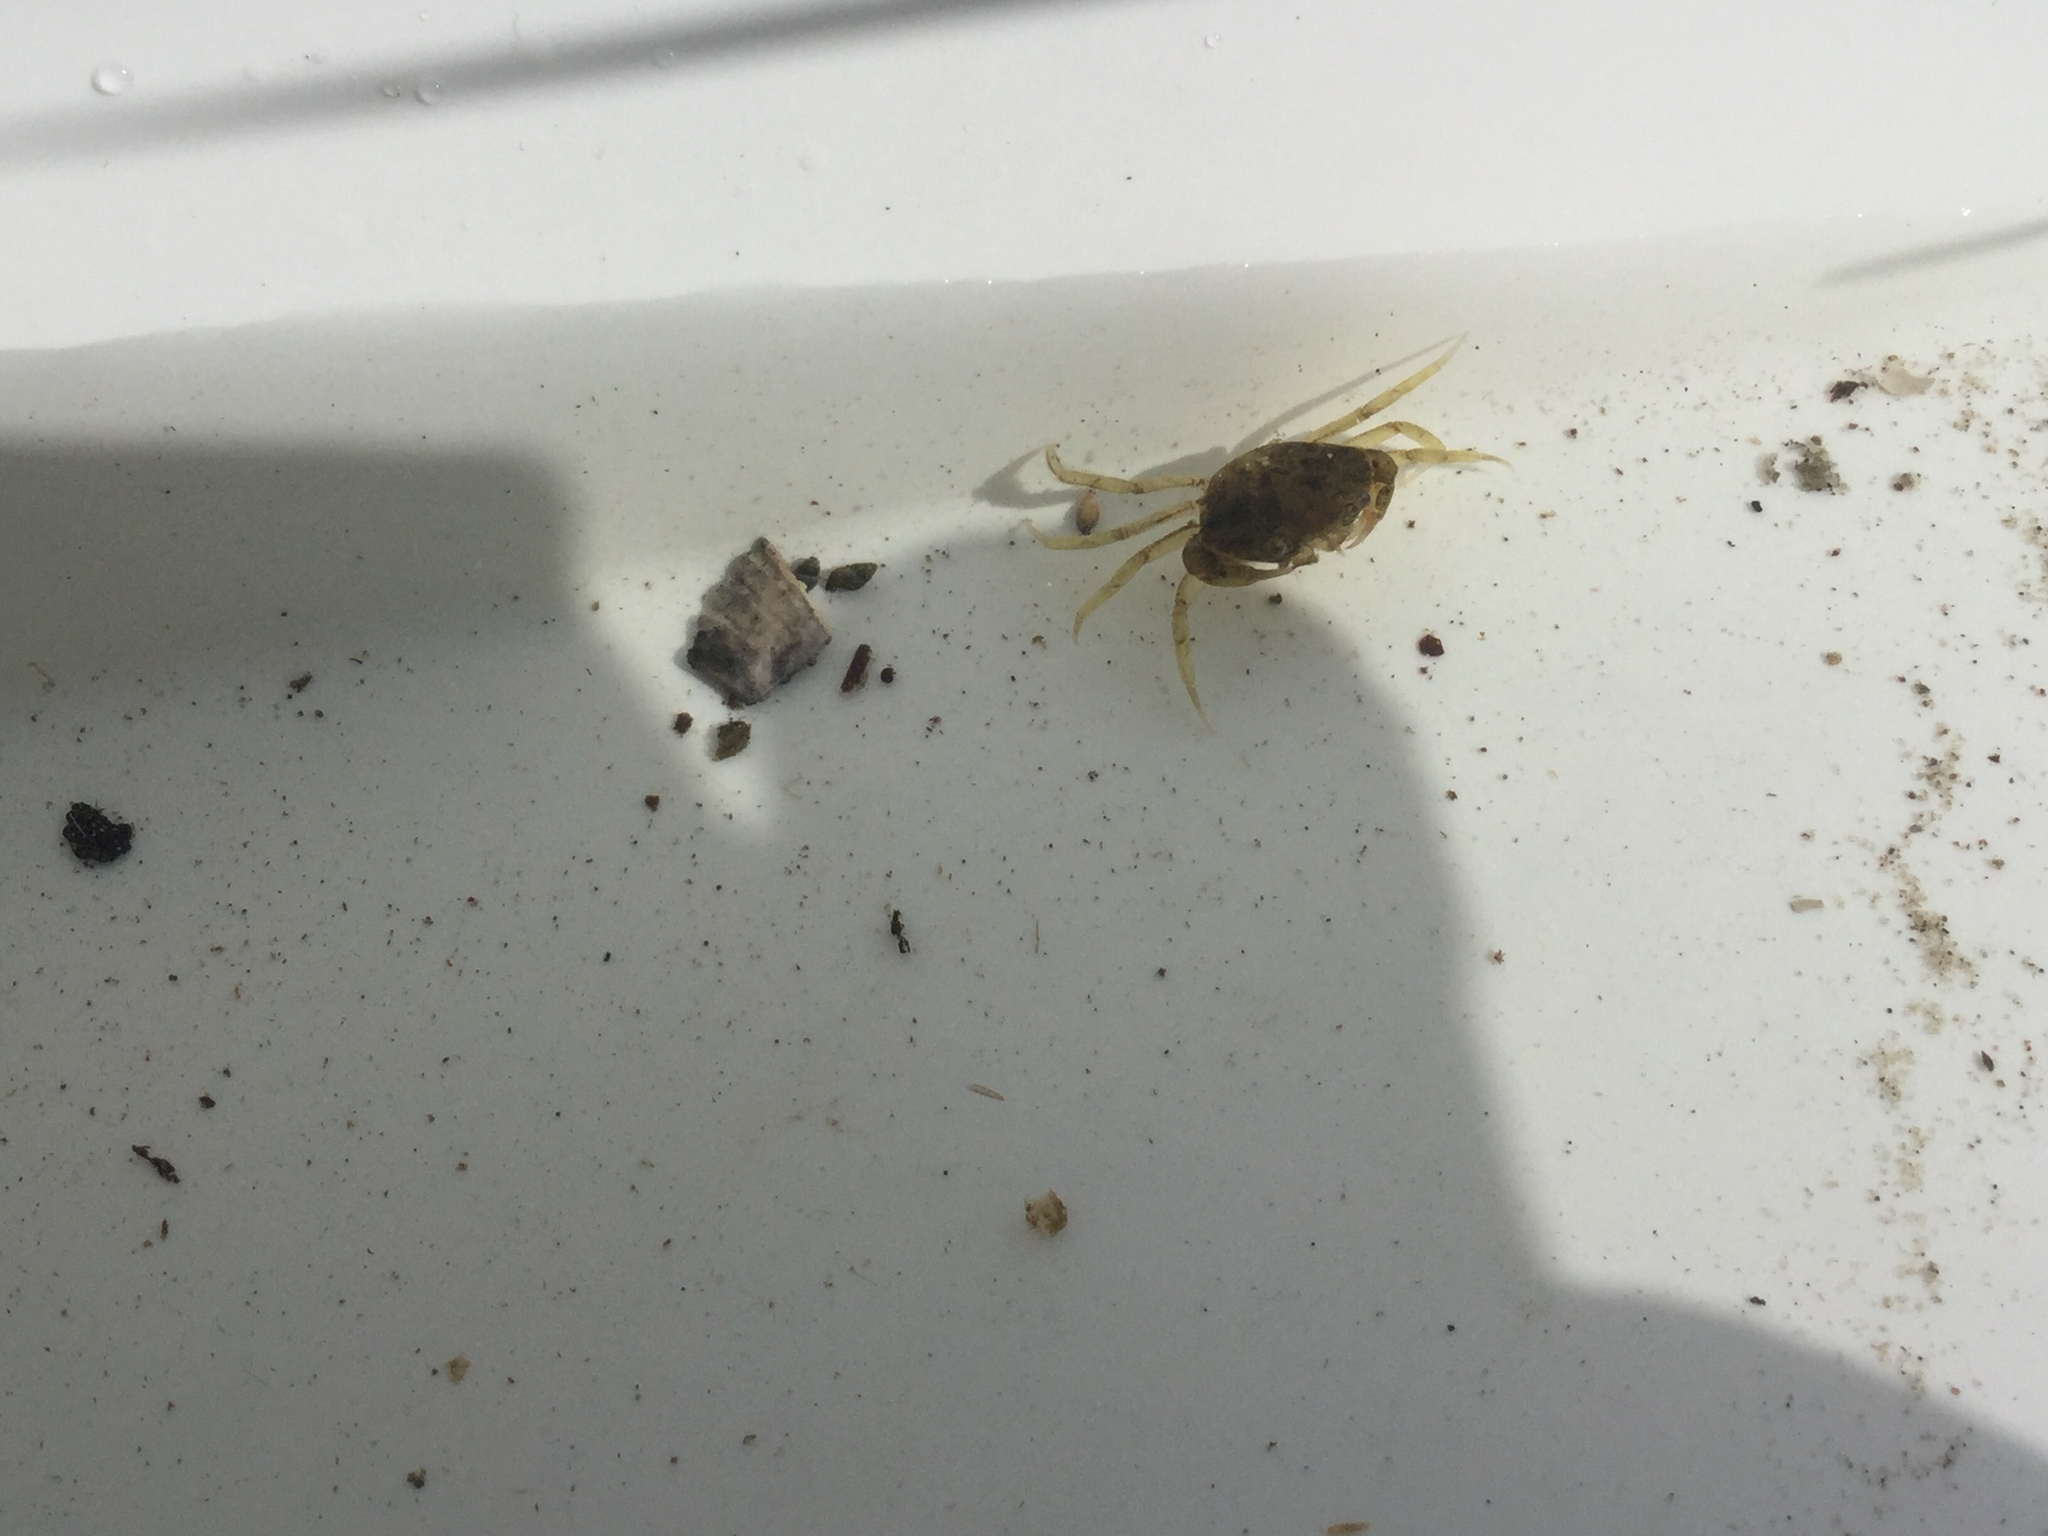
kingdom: Animalia
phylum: Arthropoda
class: Malacostraca
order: Decapoda
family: Carcinidae
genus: Carcinus
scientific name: Carcinus maenas
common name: European green crab
